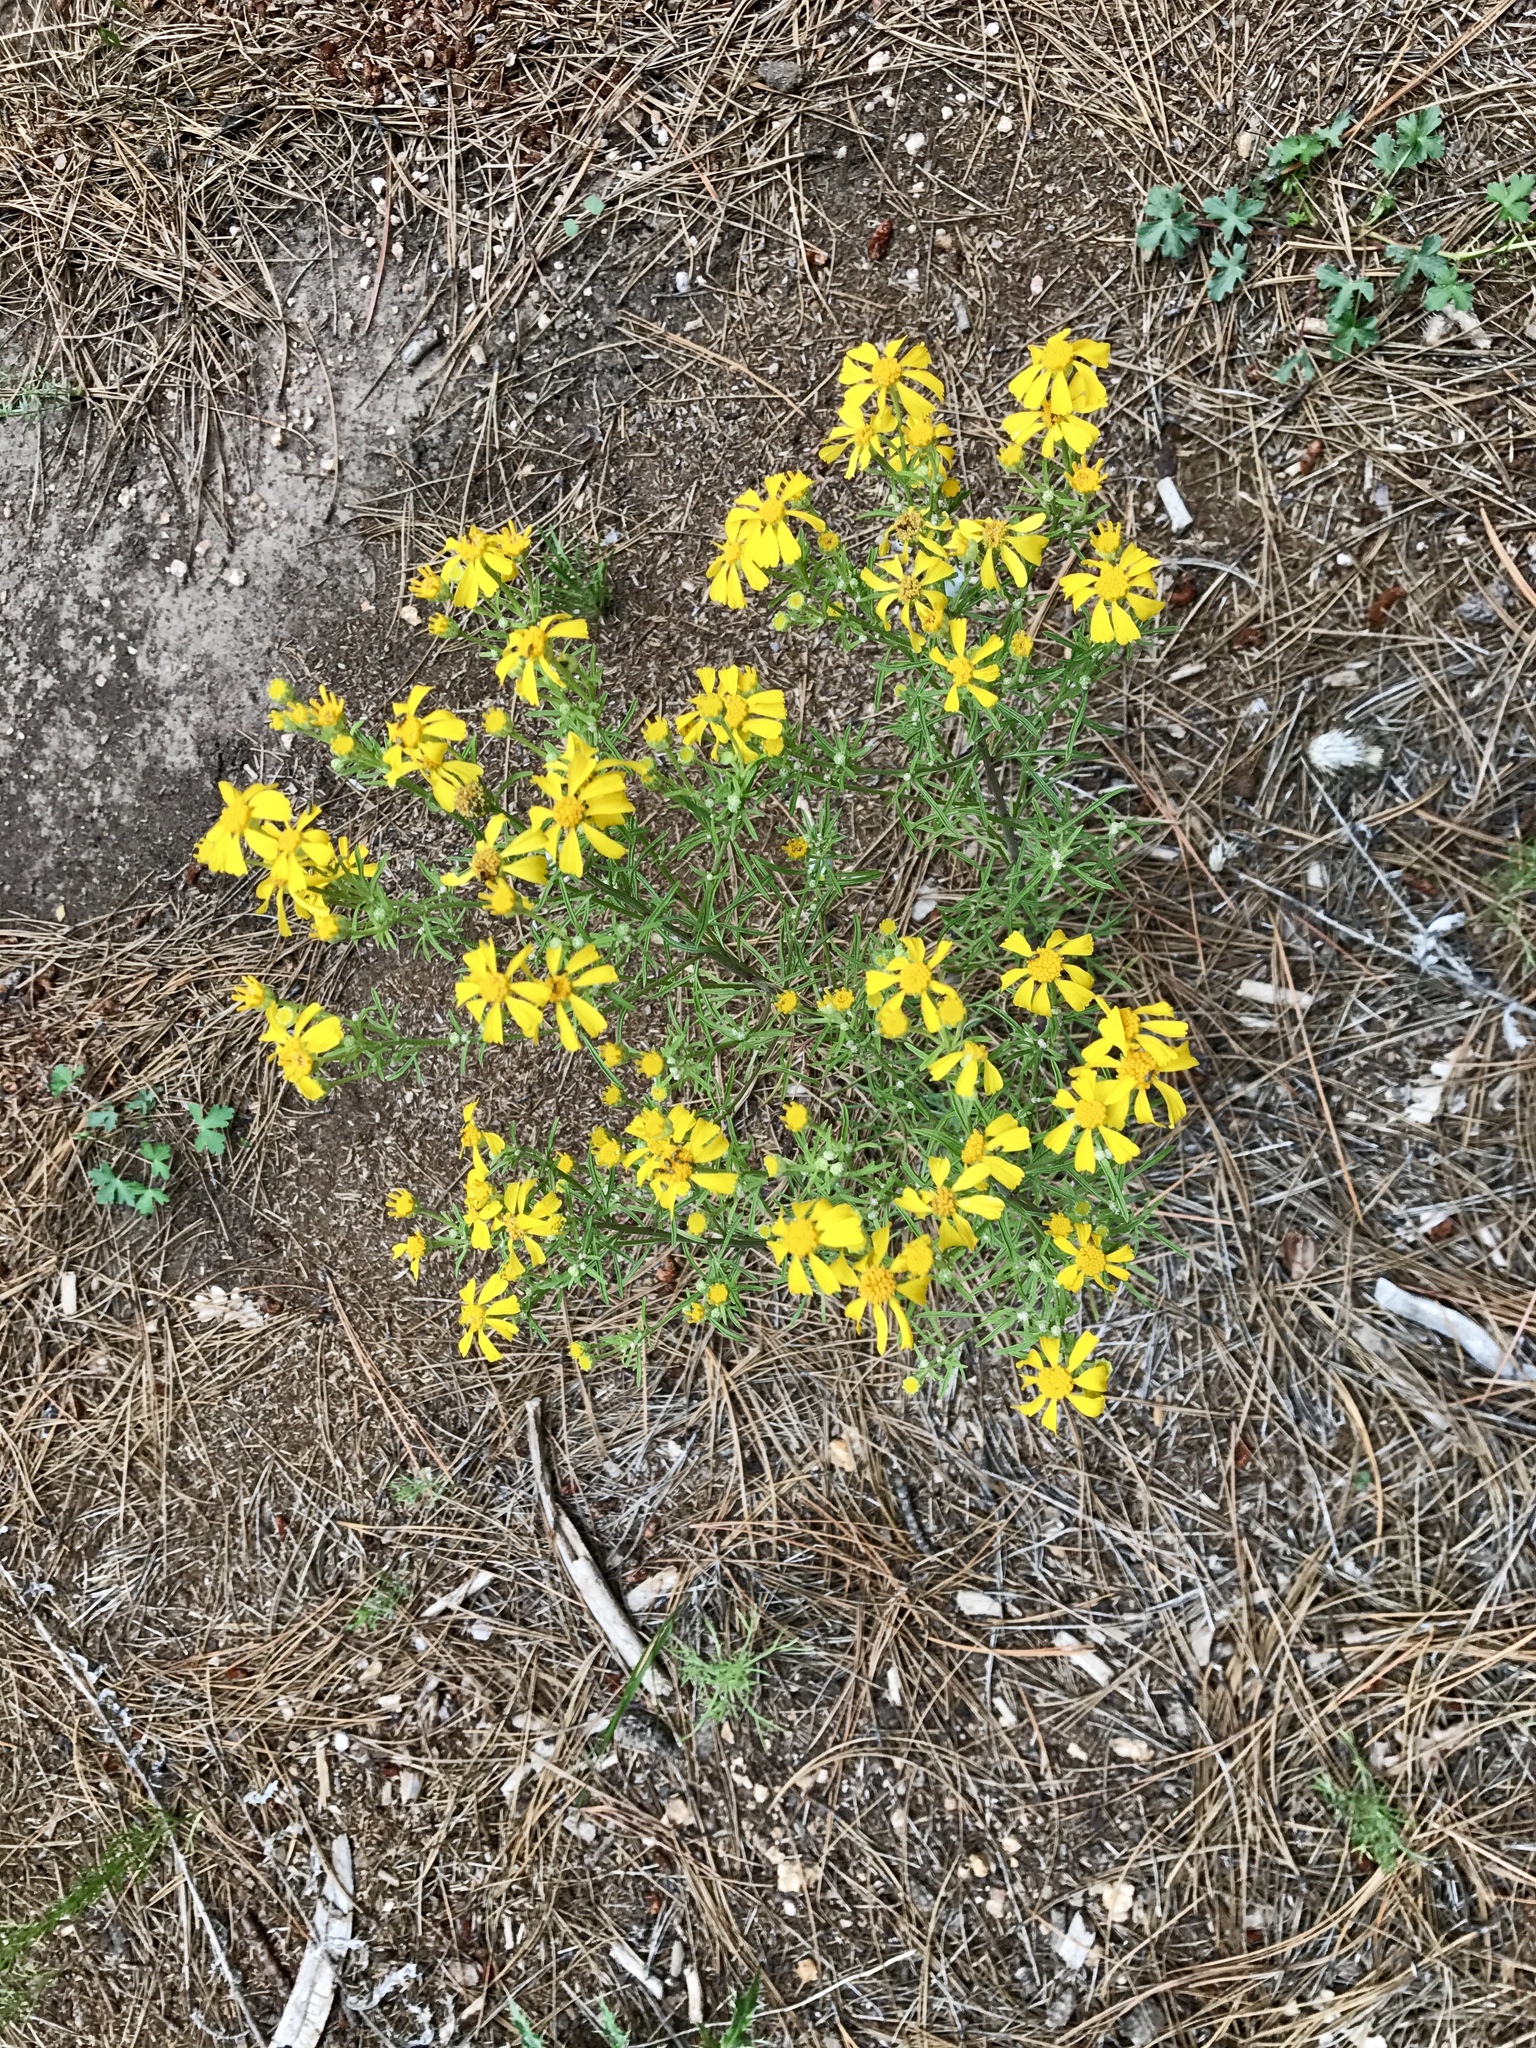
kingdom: Plantae
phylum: Tracheophyta
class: Magnoliopsida
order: Asterales
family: Asteraceae
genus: Hymenoxys
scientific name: Hymenoxys rusbyi
